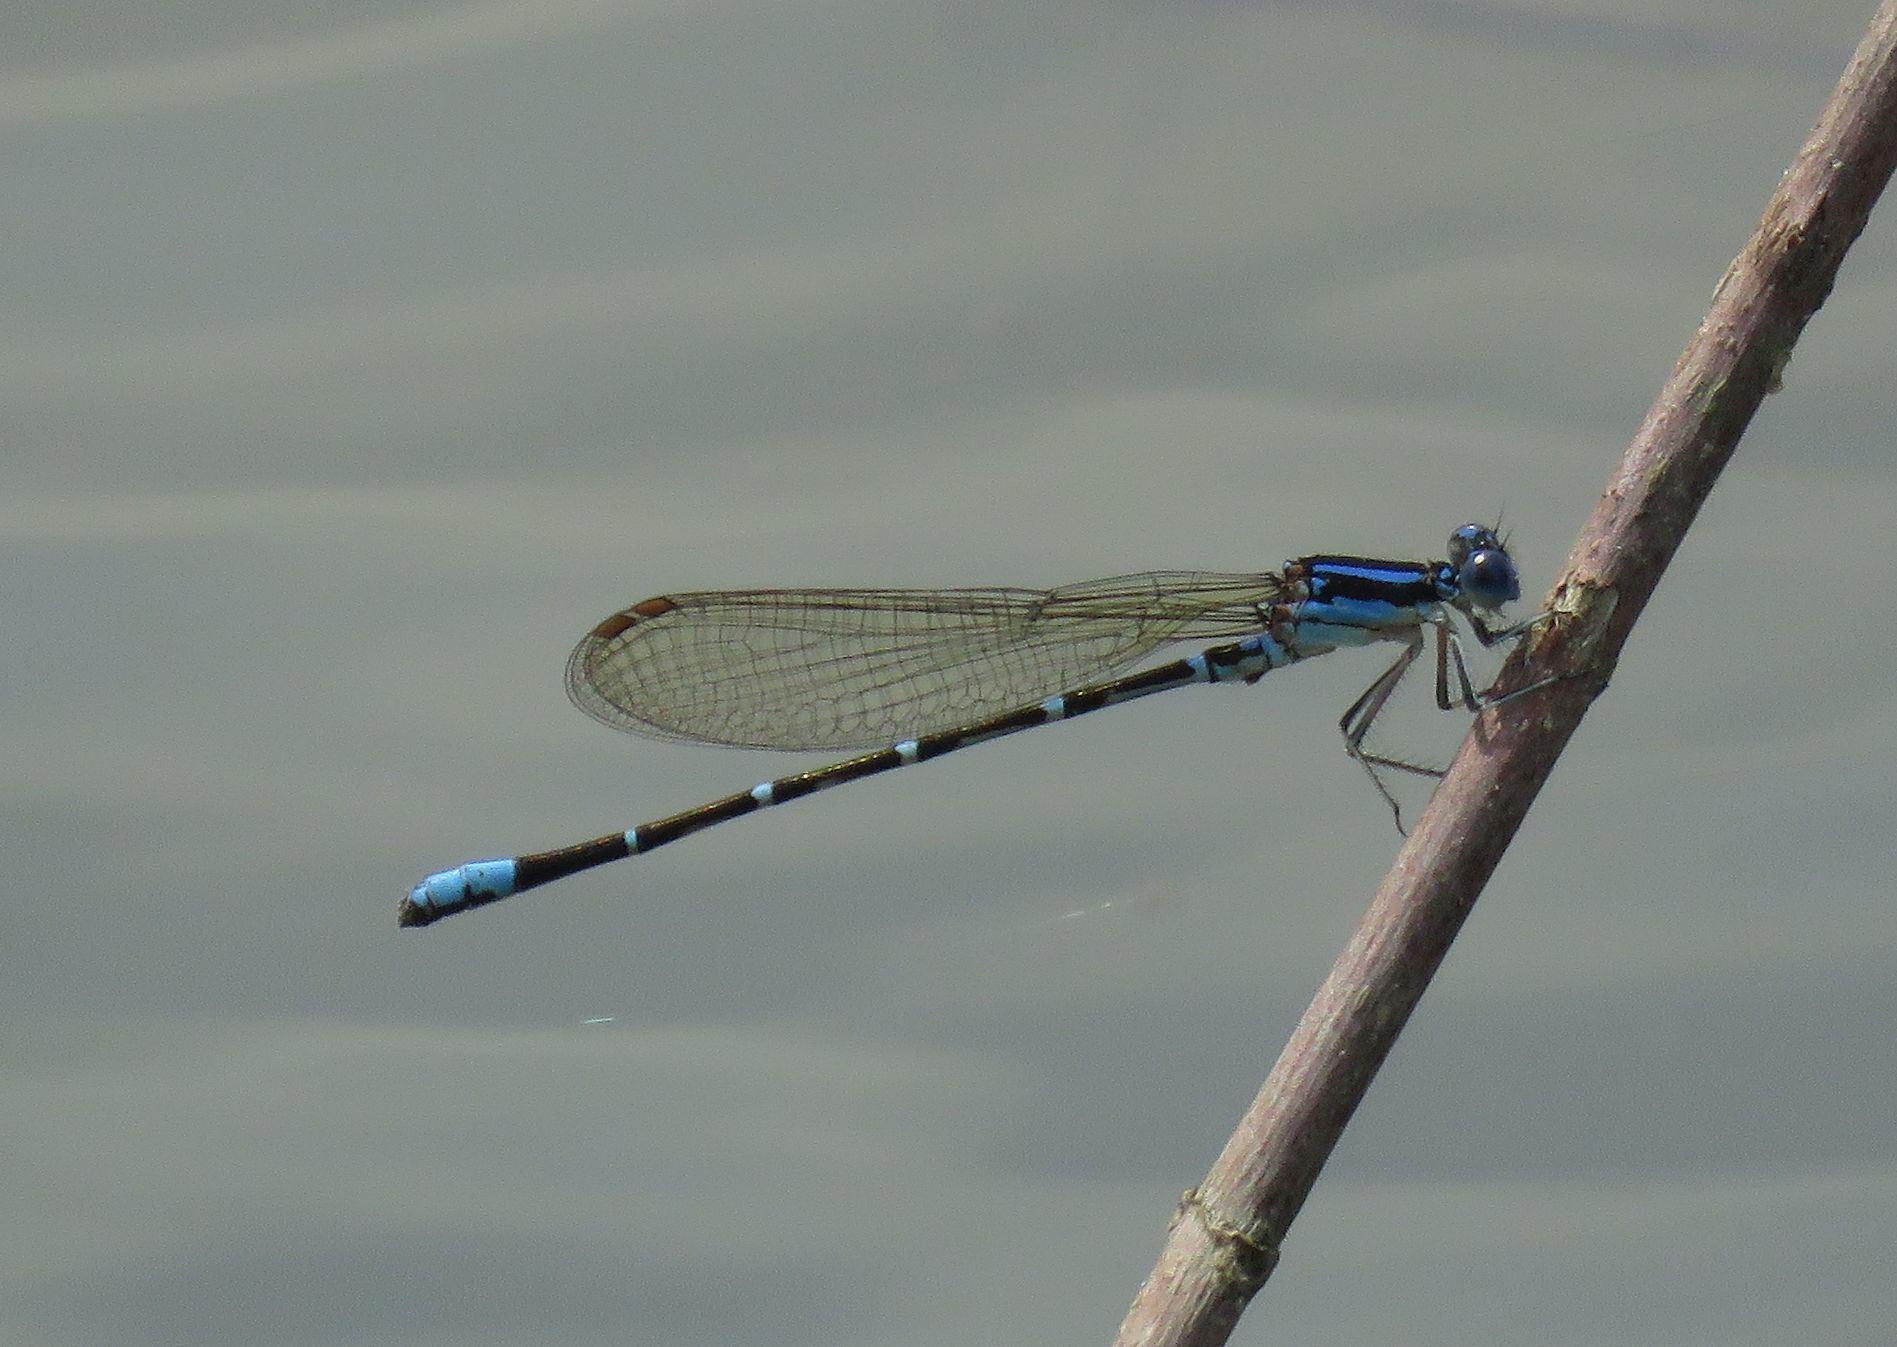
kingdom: Animalia
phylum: Arthropoda
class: Insecta
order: Odonata
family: Coenagrionidae
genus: Argia
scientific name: Argia sedula
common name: Blue-ringed dancer
